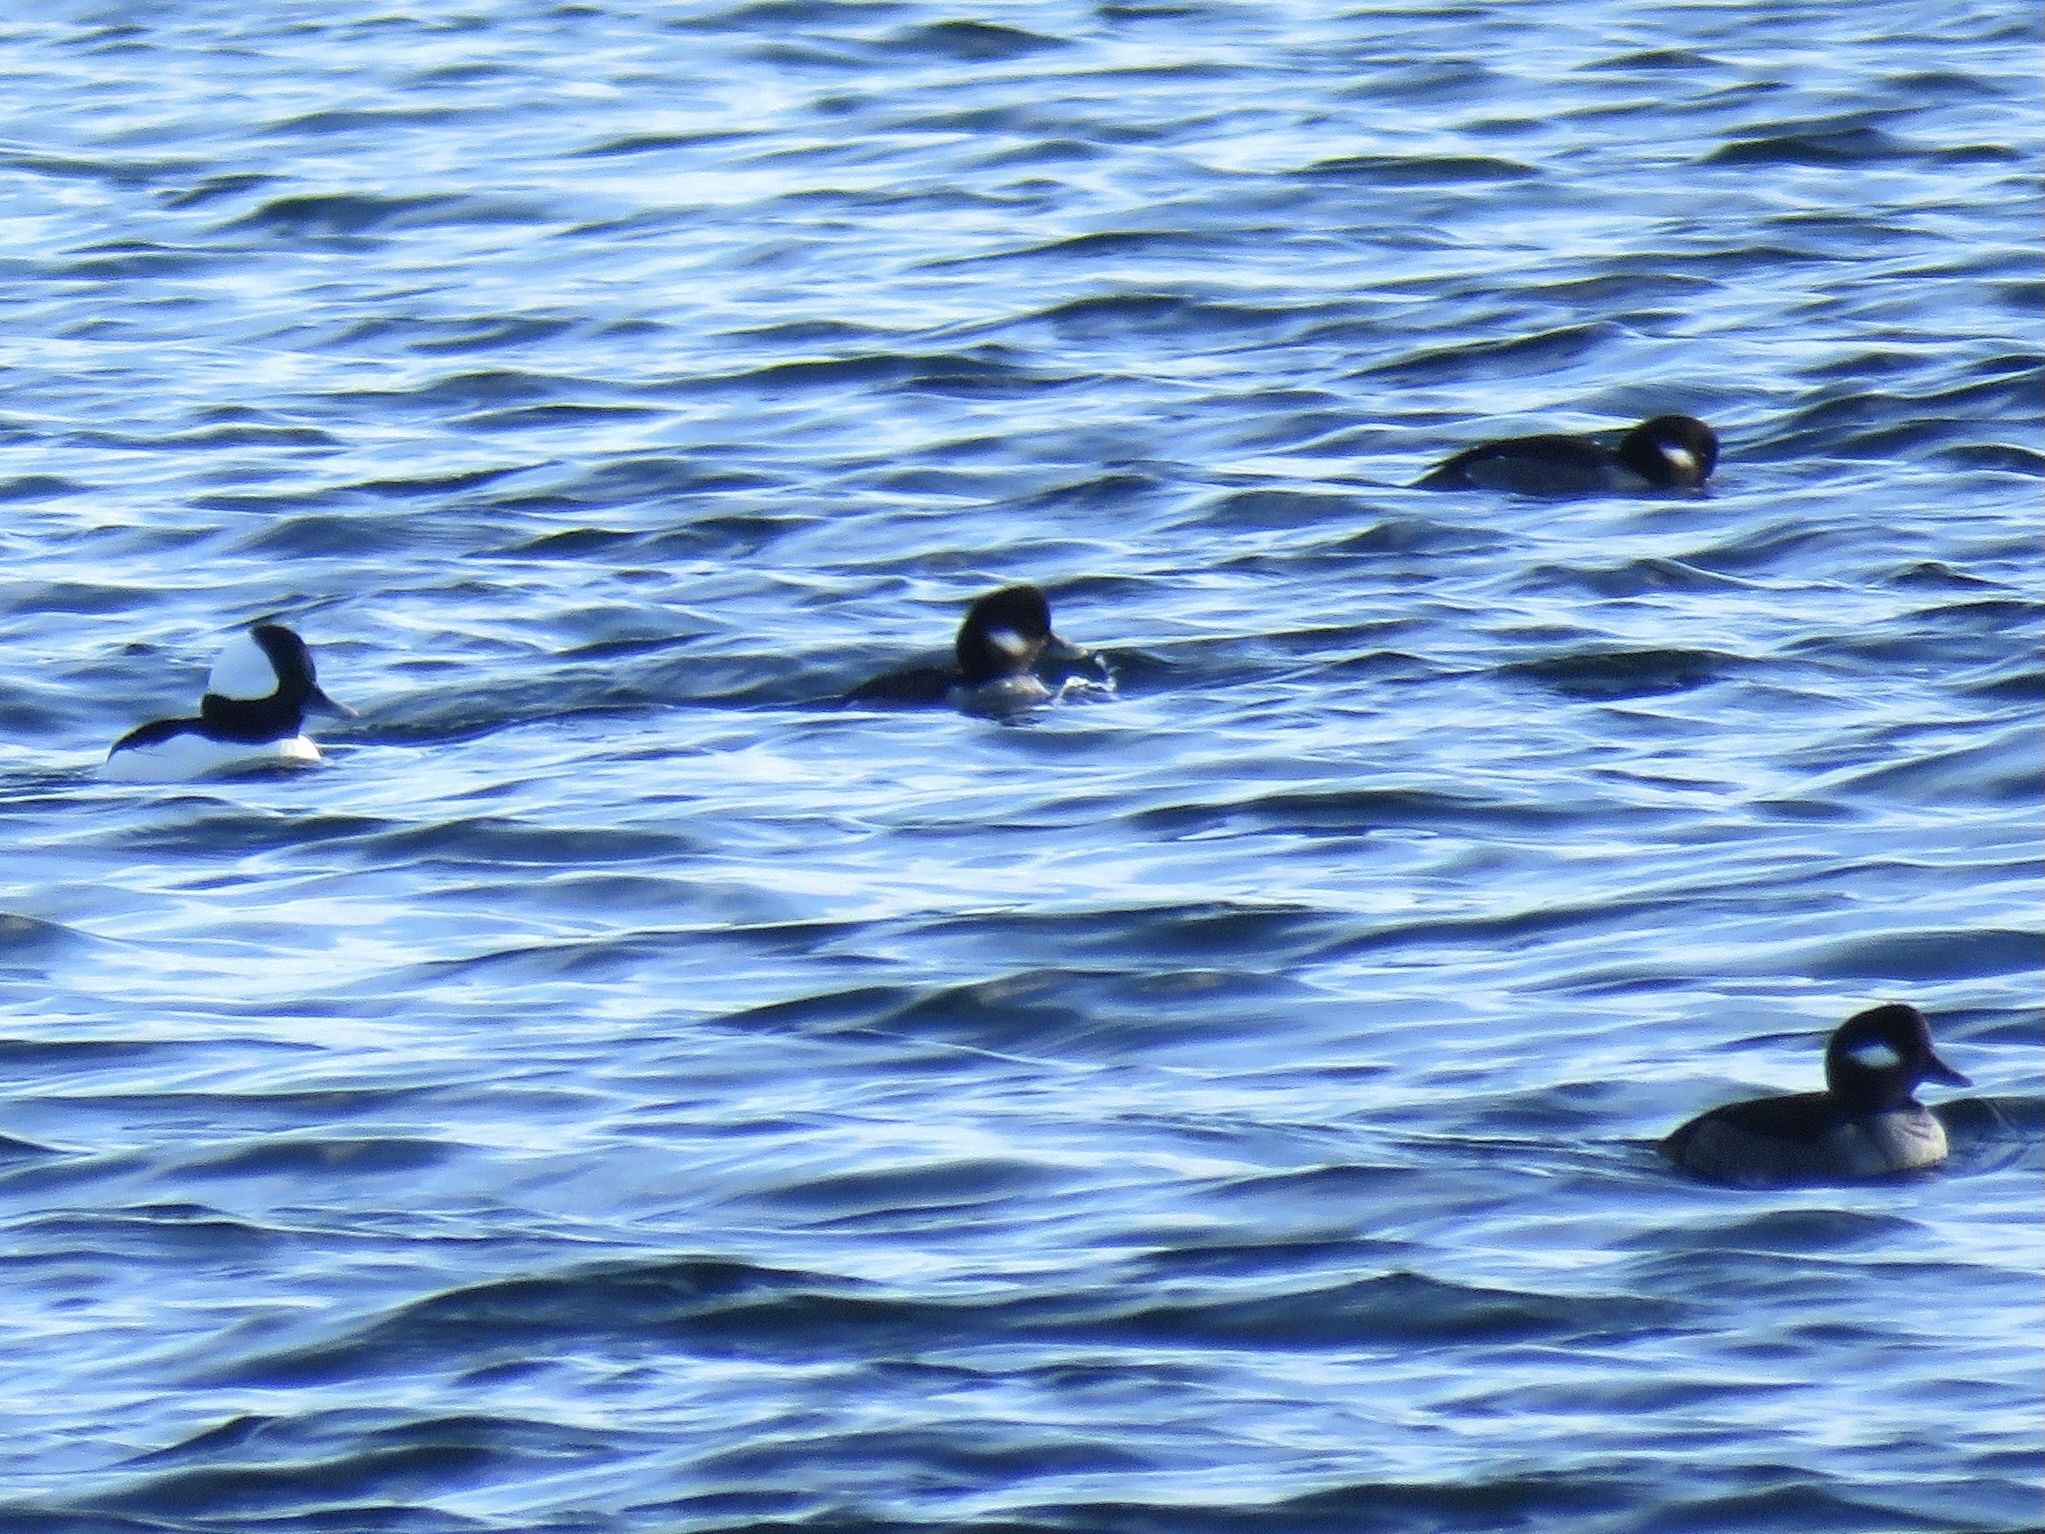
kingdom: Animalia
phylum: Chordata
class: Aves
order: Anseriformes
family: Anatidae
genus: Bucephala
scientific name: Bucephala albeola
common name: Bufflehead
